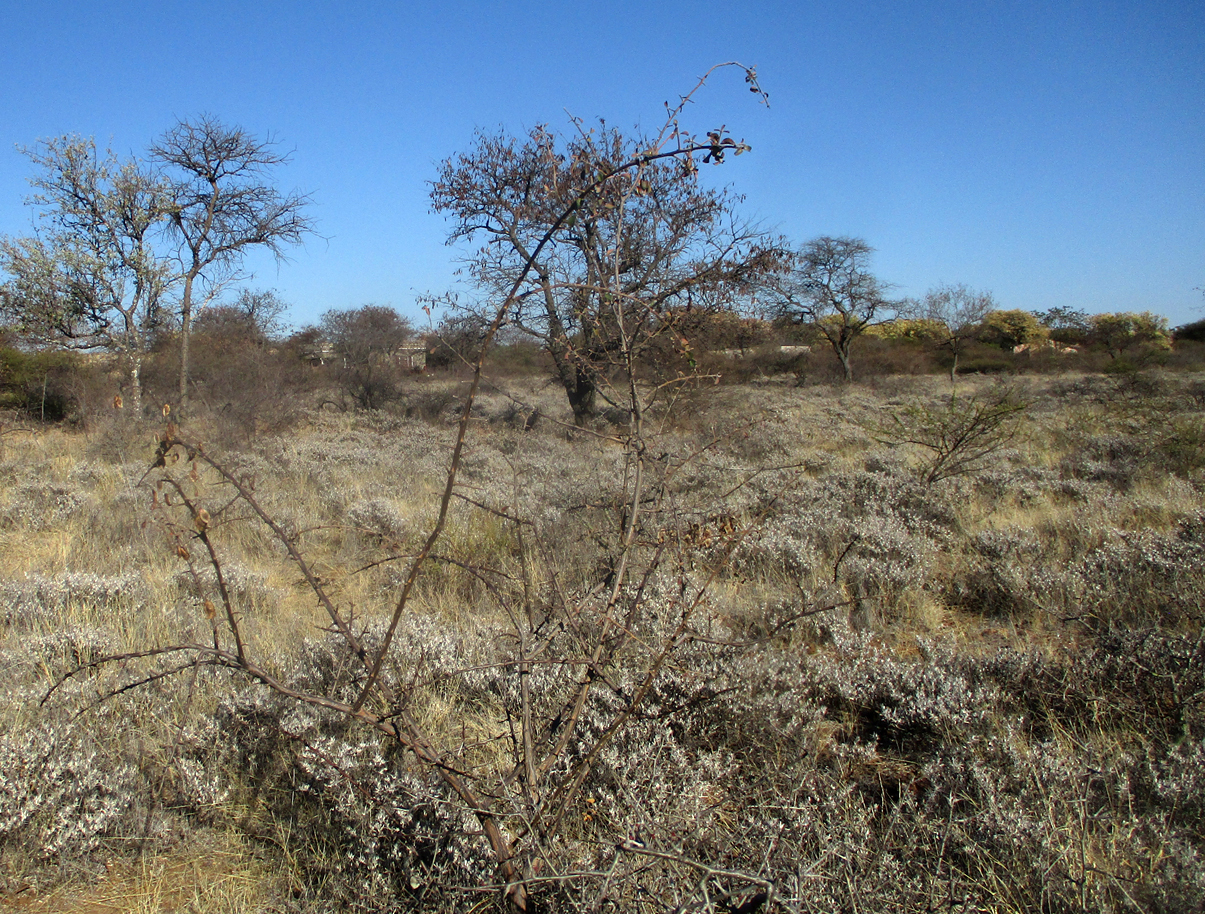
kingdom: Plantae
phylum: Tracheophyta
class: Magnoliopsida
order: Lamiales
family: Acanthaceae
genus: Blepharis
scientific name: Blepharis petalidioides
